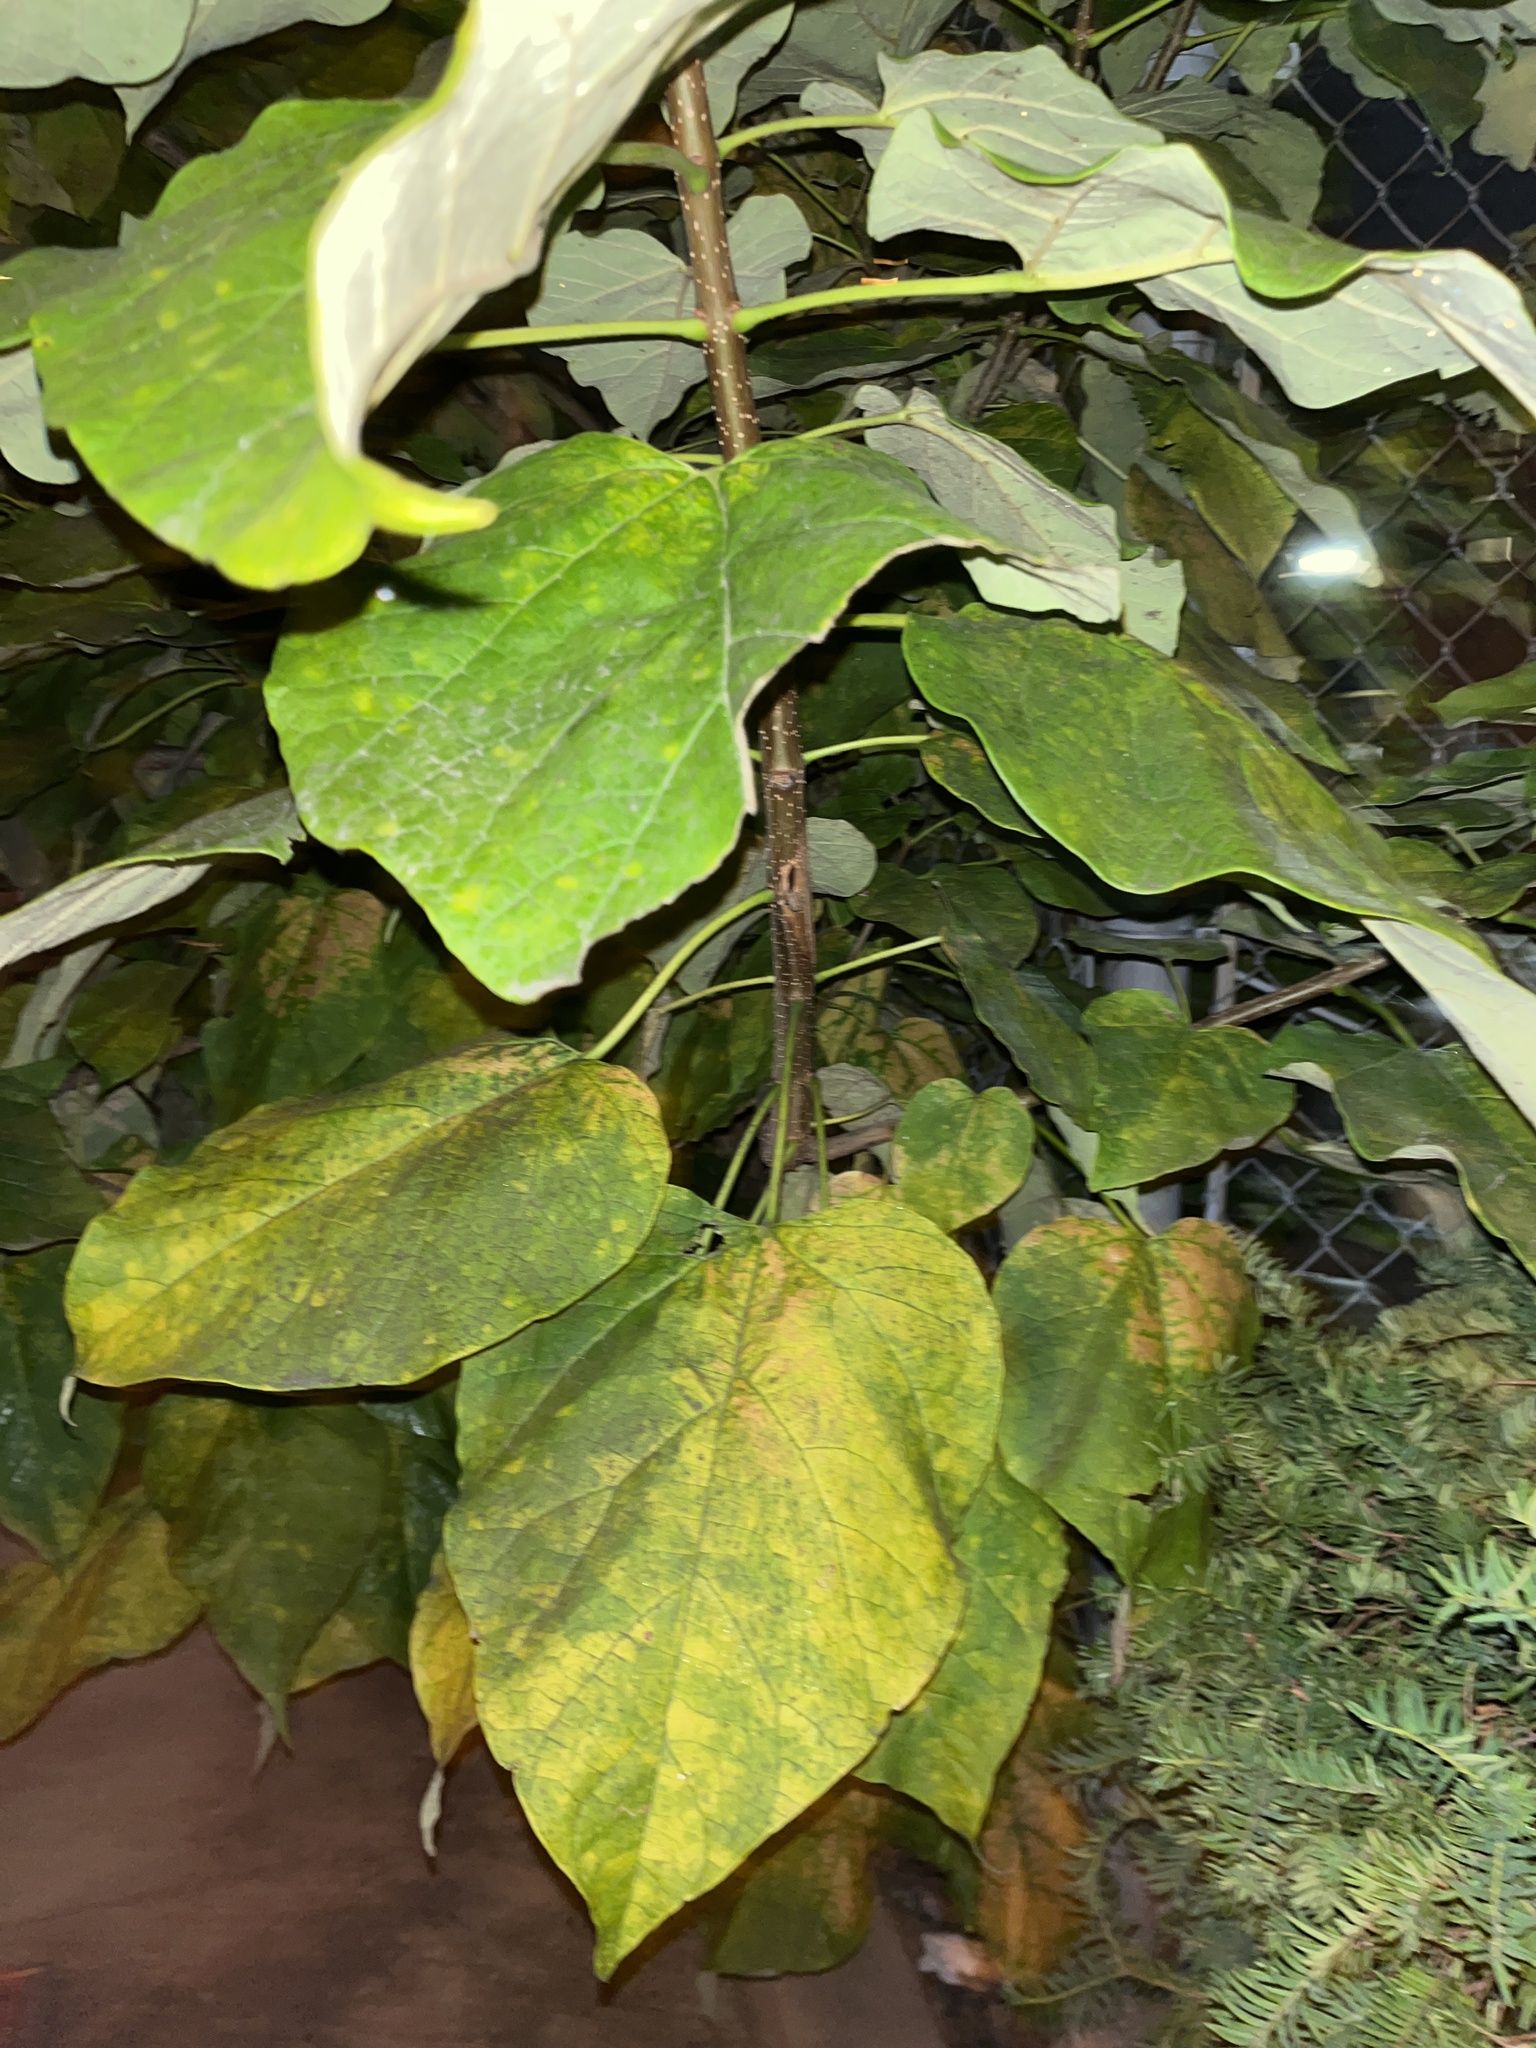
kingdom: Plantae
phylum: Tracheophyta
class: Magnoliopsida
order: Lamiales
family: Bignoniaceae
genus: Catalpa
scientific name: Catalpa speciosa
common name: Northern catalpa
